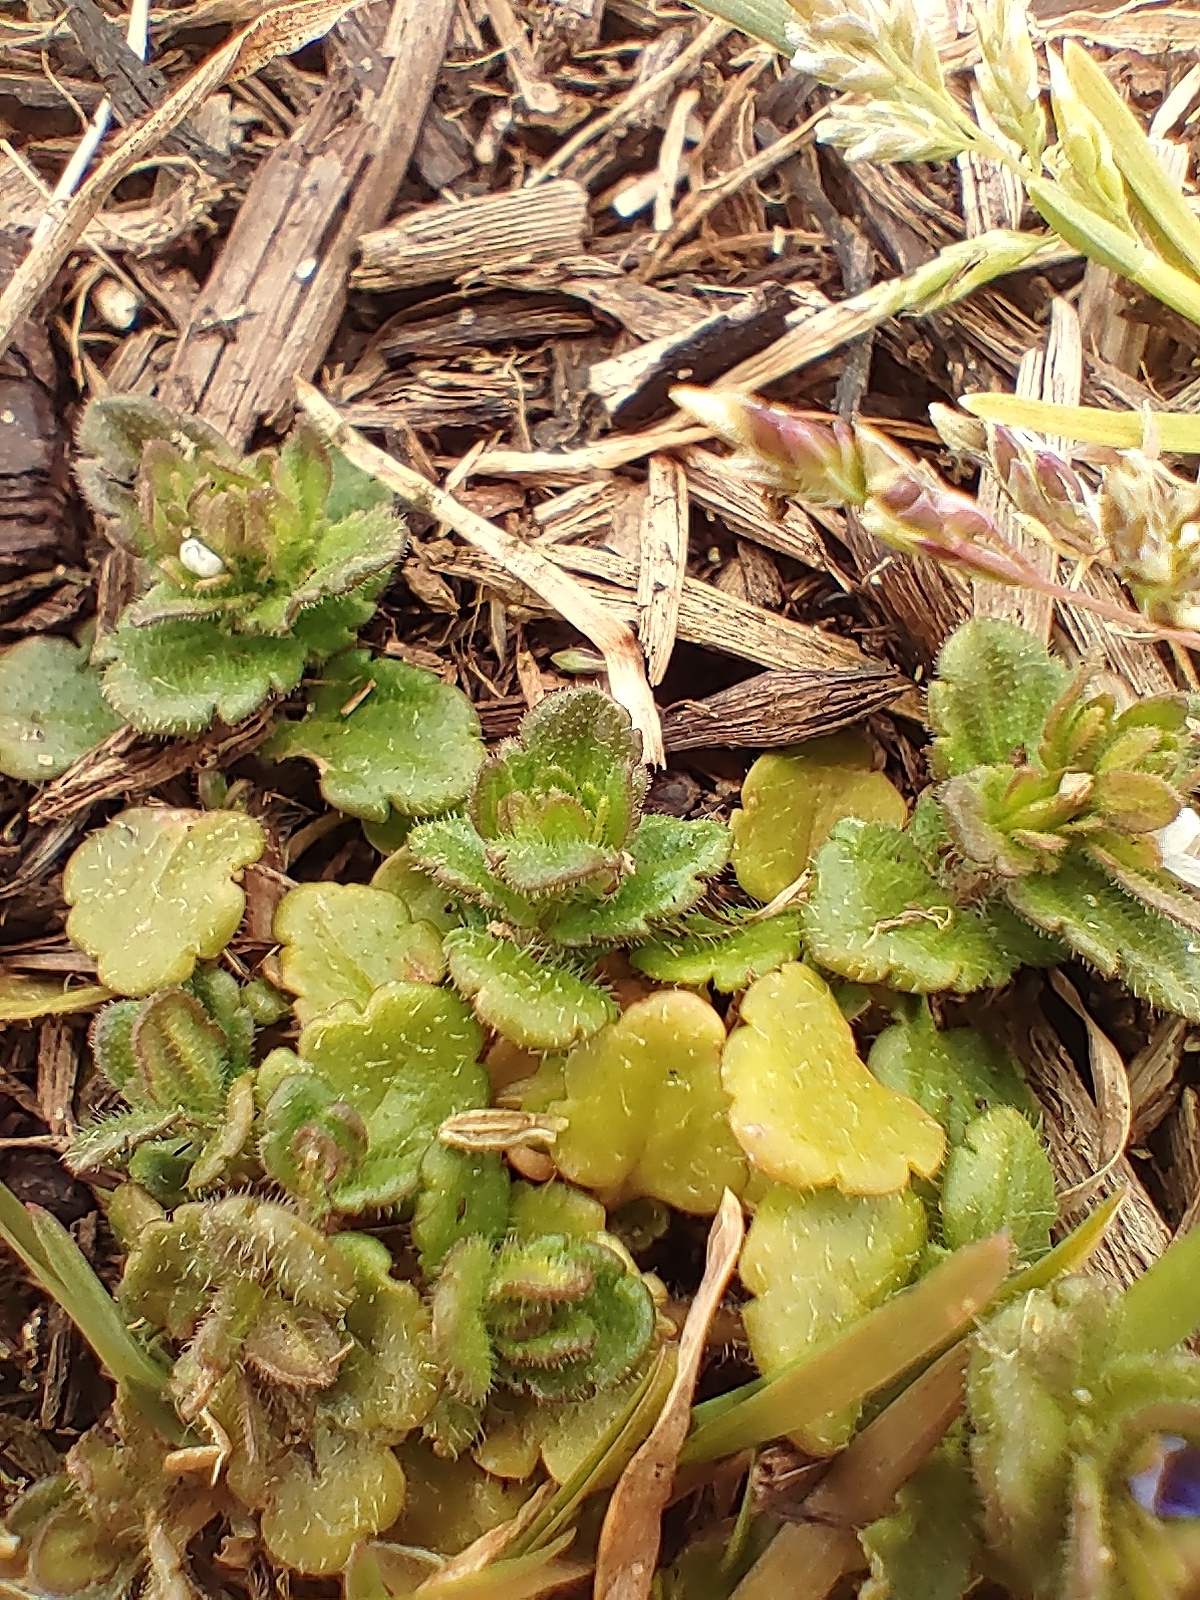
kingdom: Plantae
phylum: Tracheophyta
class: Magnoliopsida
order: Lamiales
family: Plantaginaceae
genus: Veronica
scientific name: Veronica arvensis
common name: Corn speedwell
